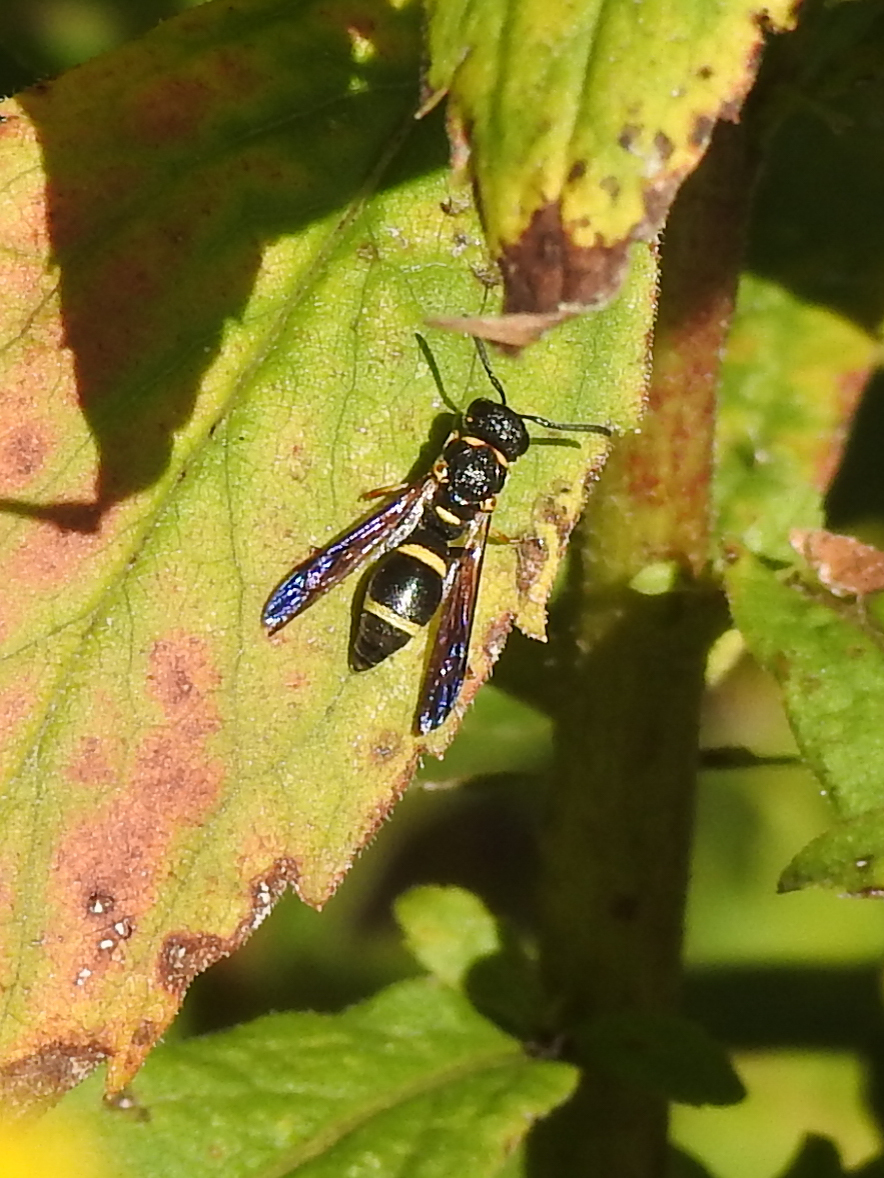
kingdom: Animalia
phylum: Arthropoda
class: Insecta
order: Hymenoptera
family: Eumenidae
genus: Parancistrocerus
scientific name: Parancistrocerus perennis
